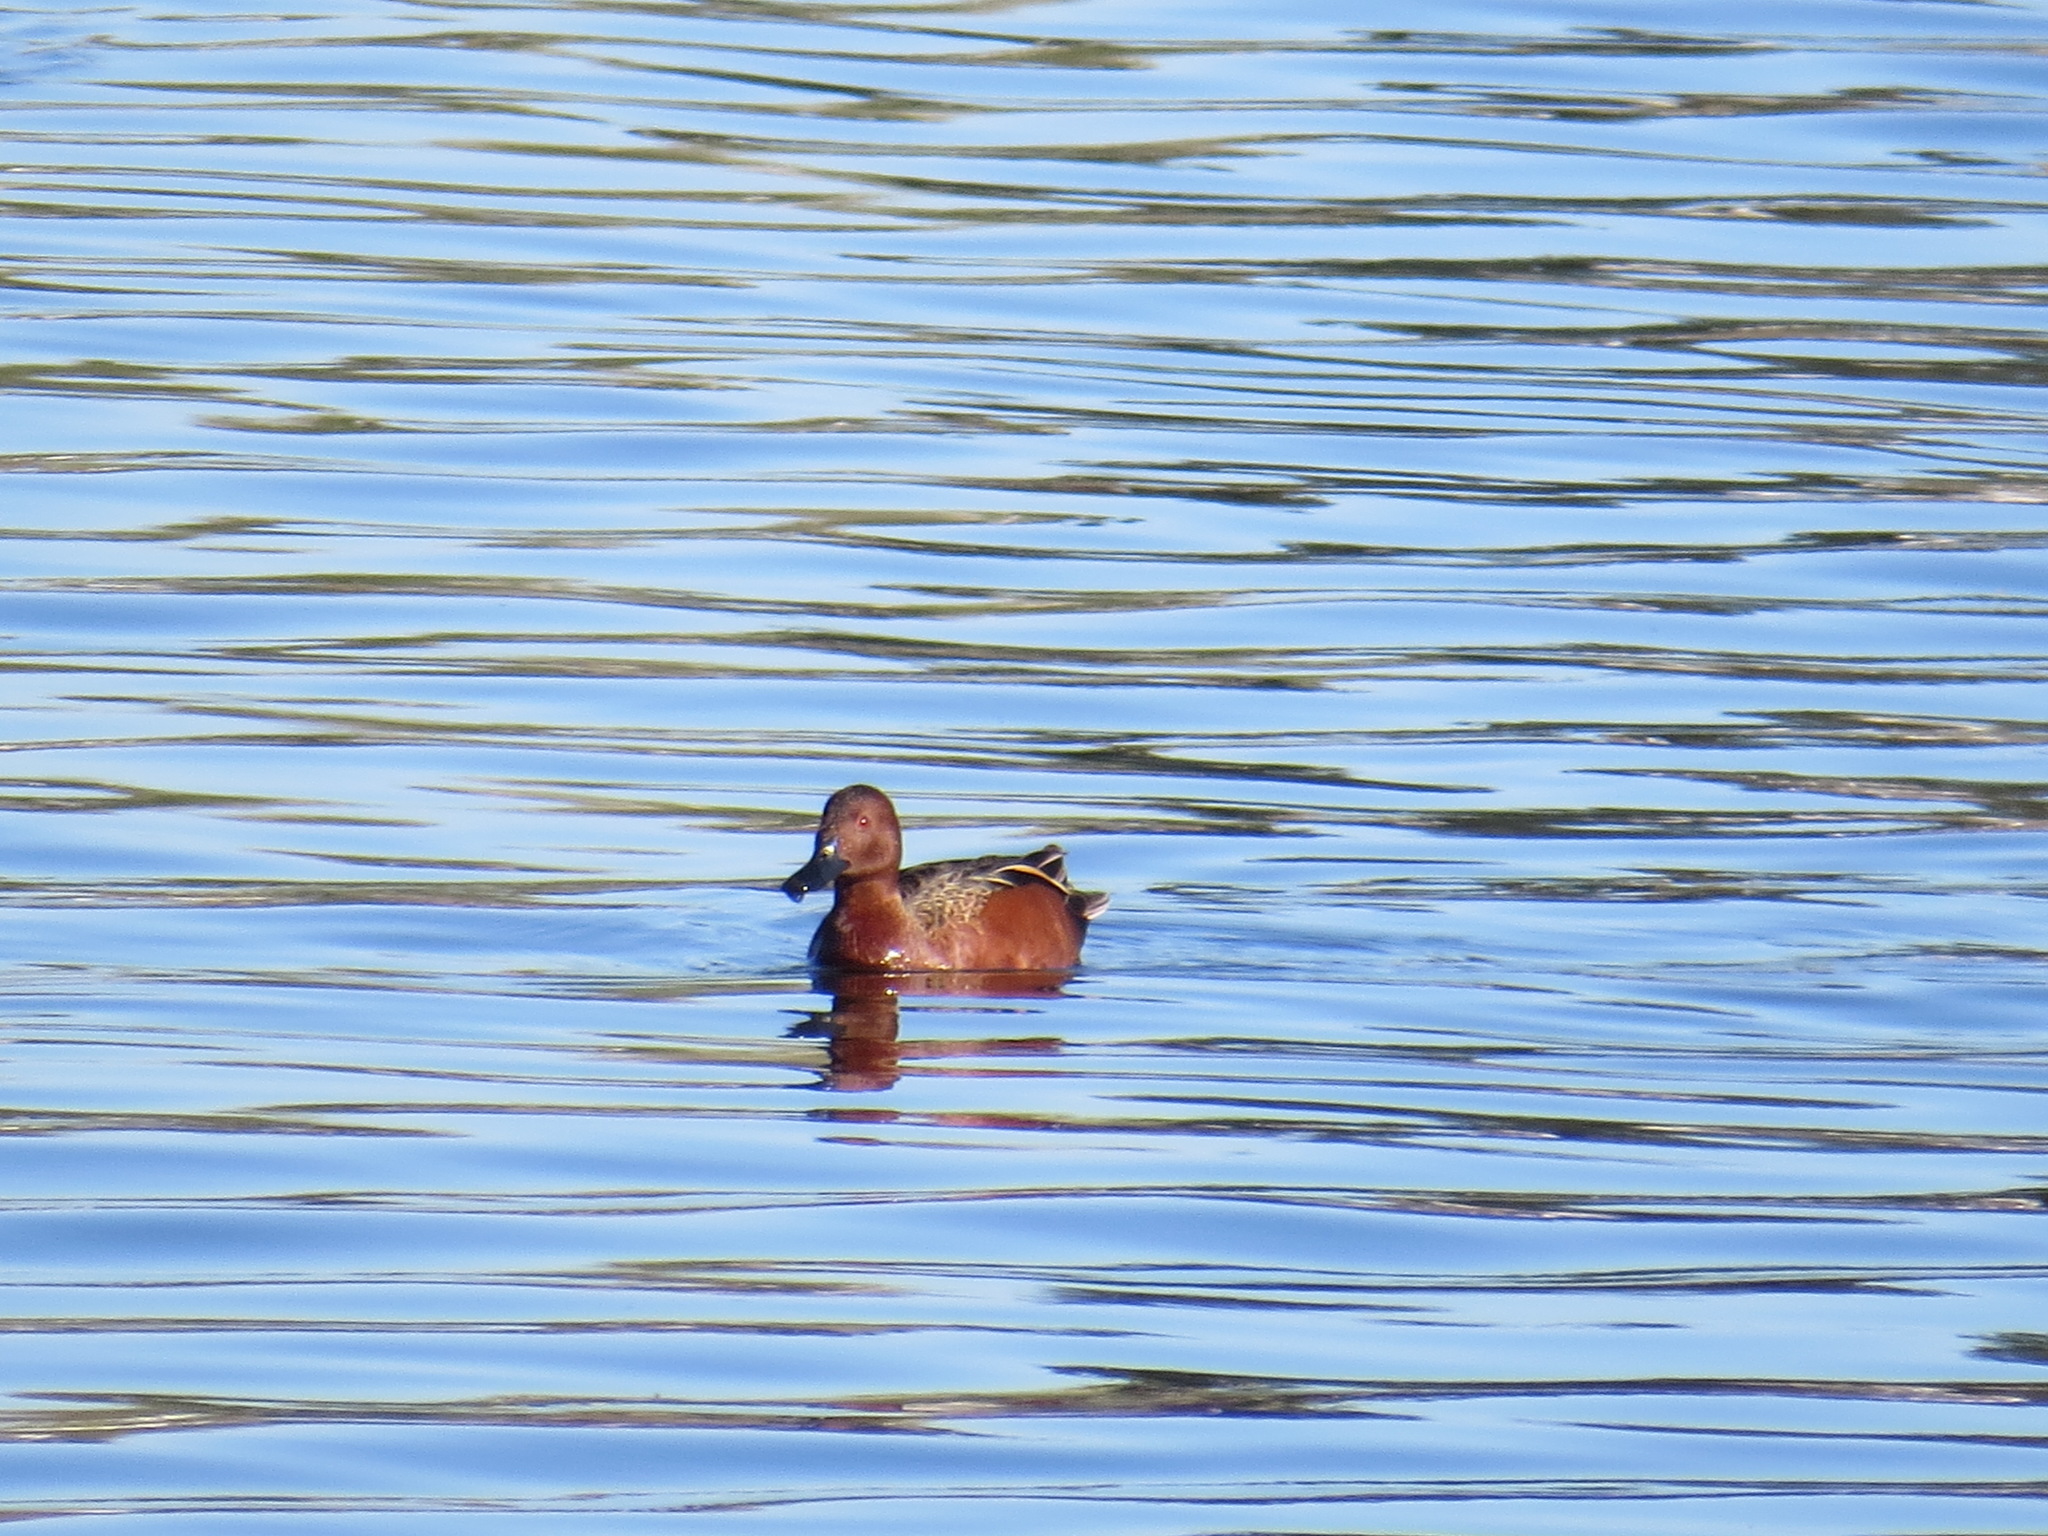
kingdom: Animalia
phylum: Chordata
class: Aves
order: Anseriformes
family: Anatidae
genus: Spatula
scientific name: Spatula cyanoptera
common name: Cinnamon teal
